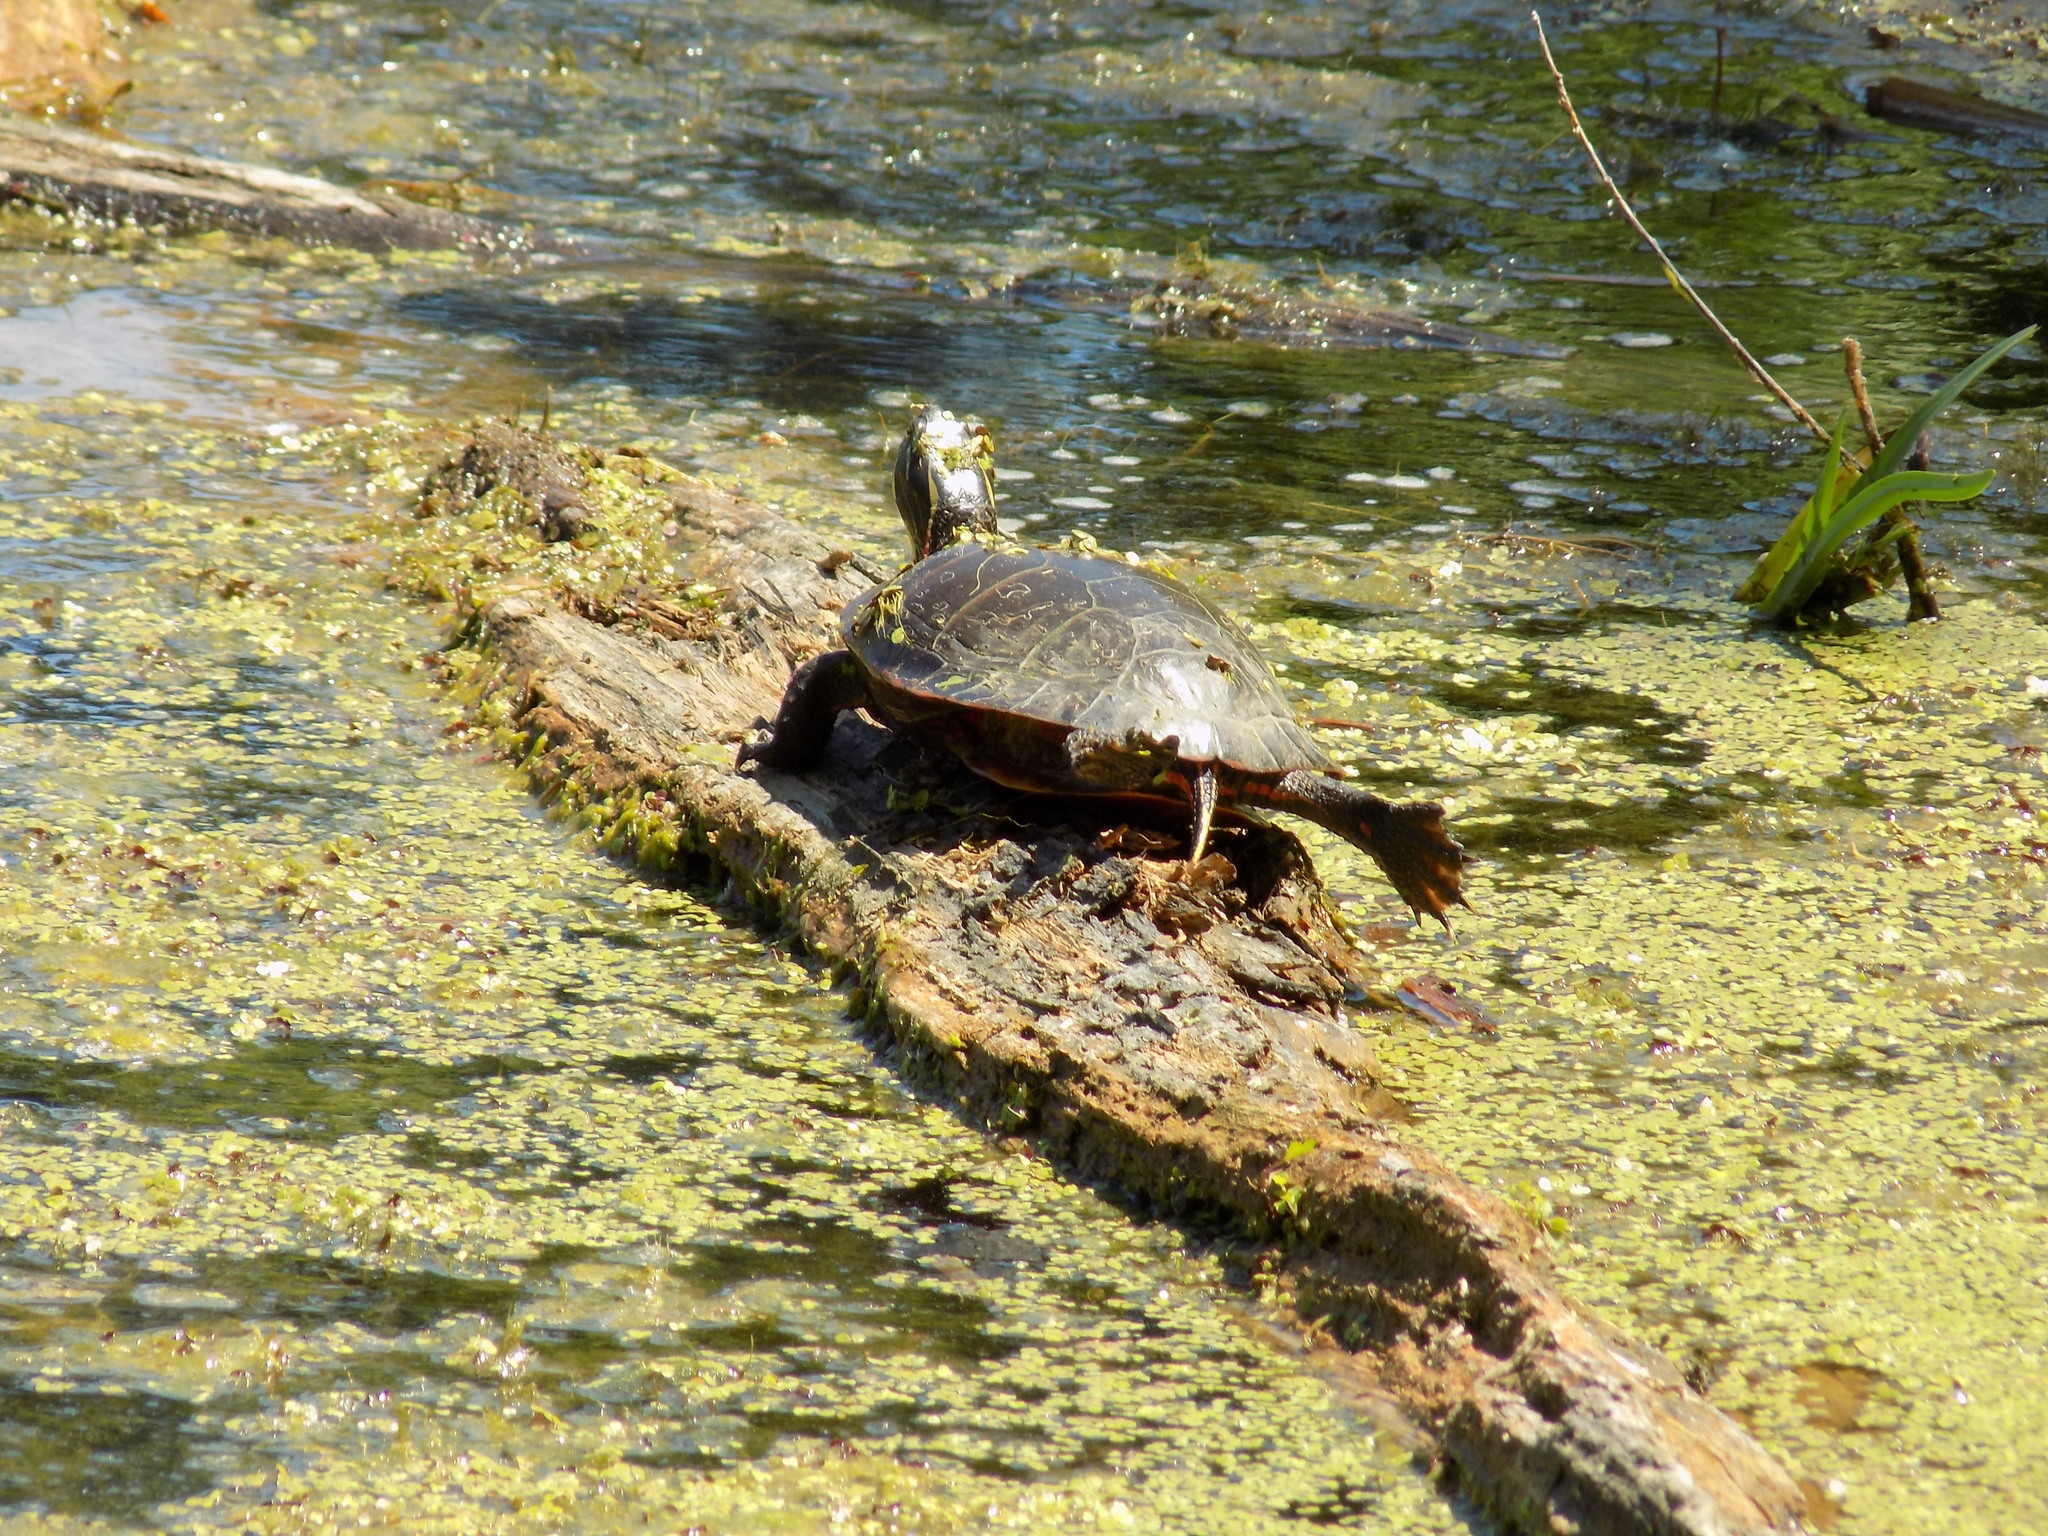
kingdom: Animalia
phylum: Chordata
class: Testudines
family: Emydidae
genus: Chrysemys
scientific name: Chrysemys picta
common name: Painted turtle
